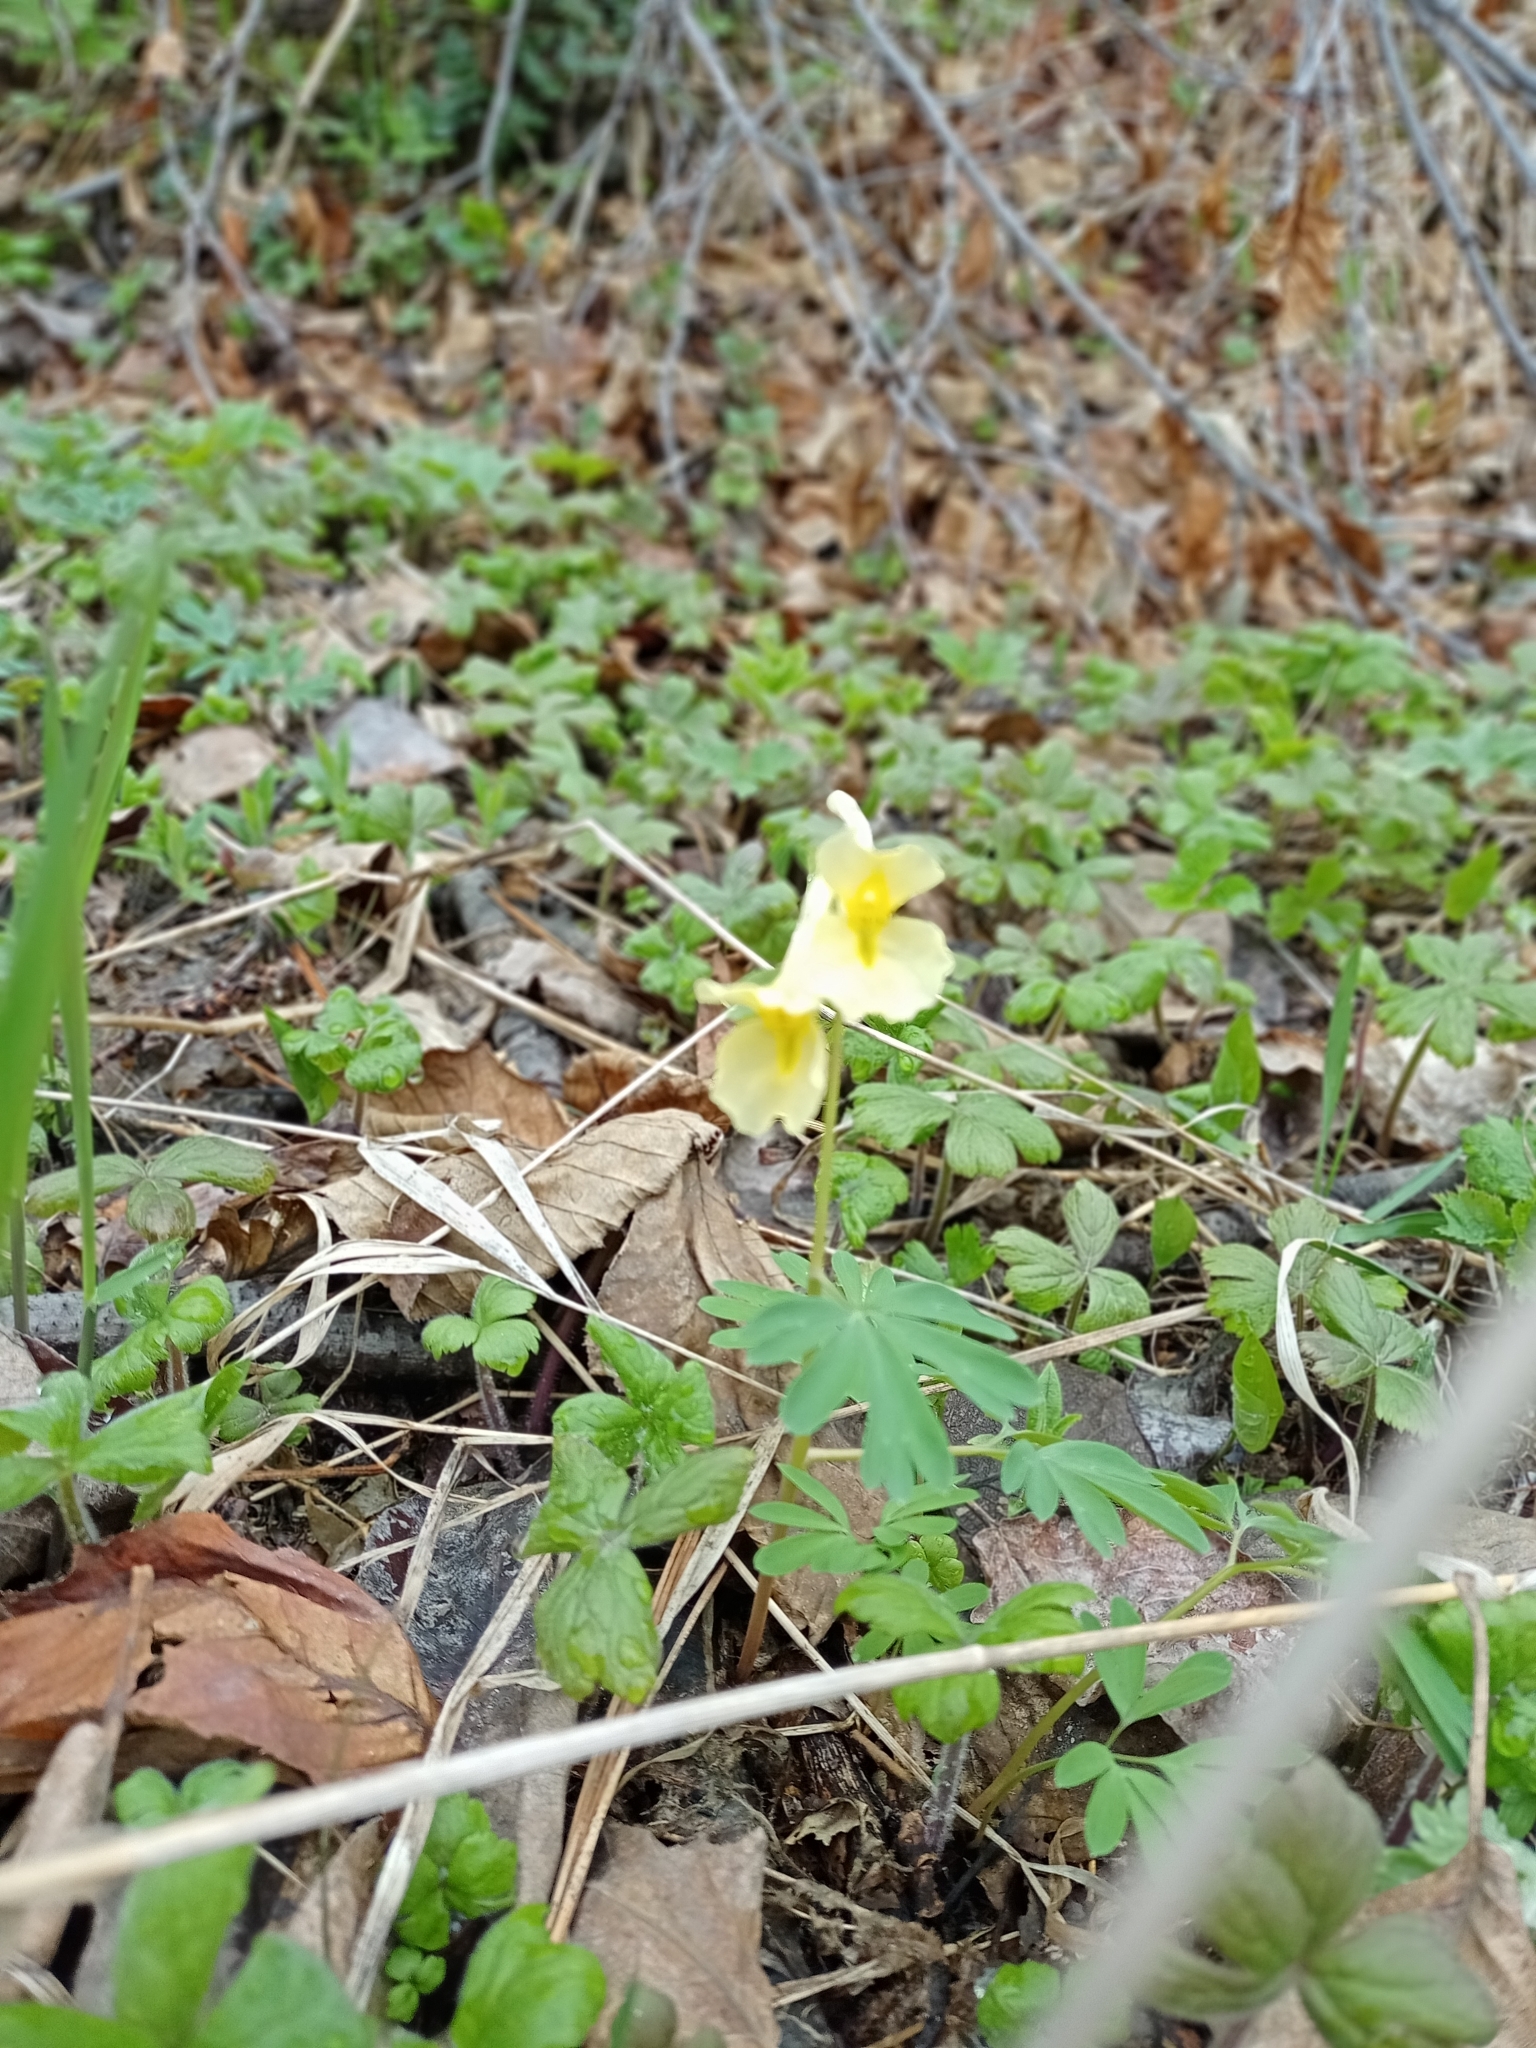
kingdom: Plantae
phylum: Tracheophyta
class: Magnoliopsida
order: Ranunculales
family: Papaveraceae
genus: Corydalis
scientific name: Corydalis bracteata
